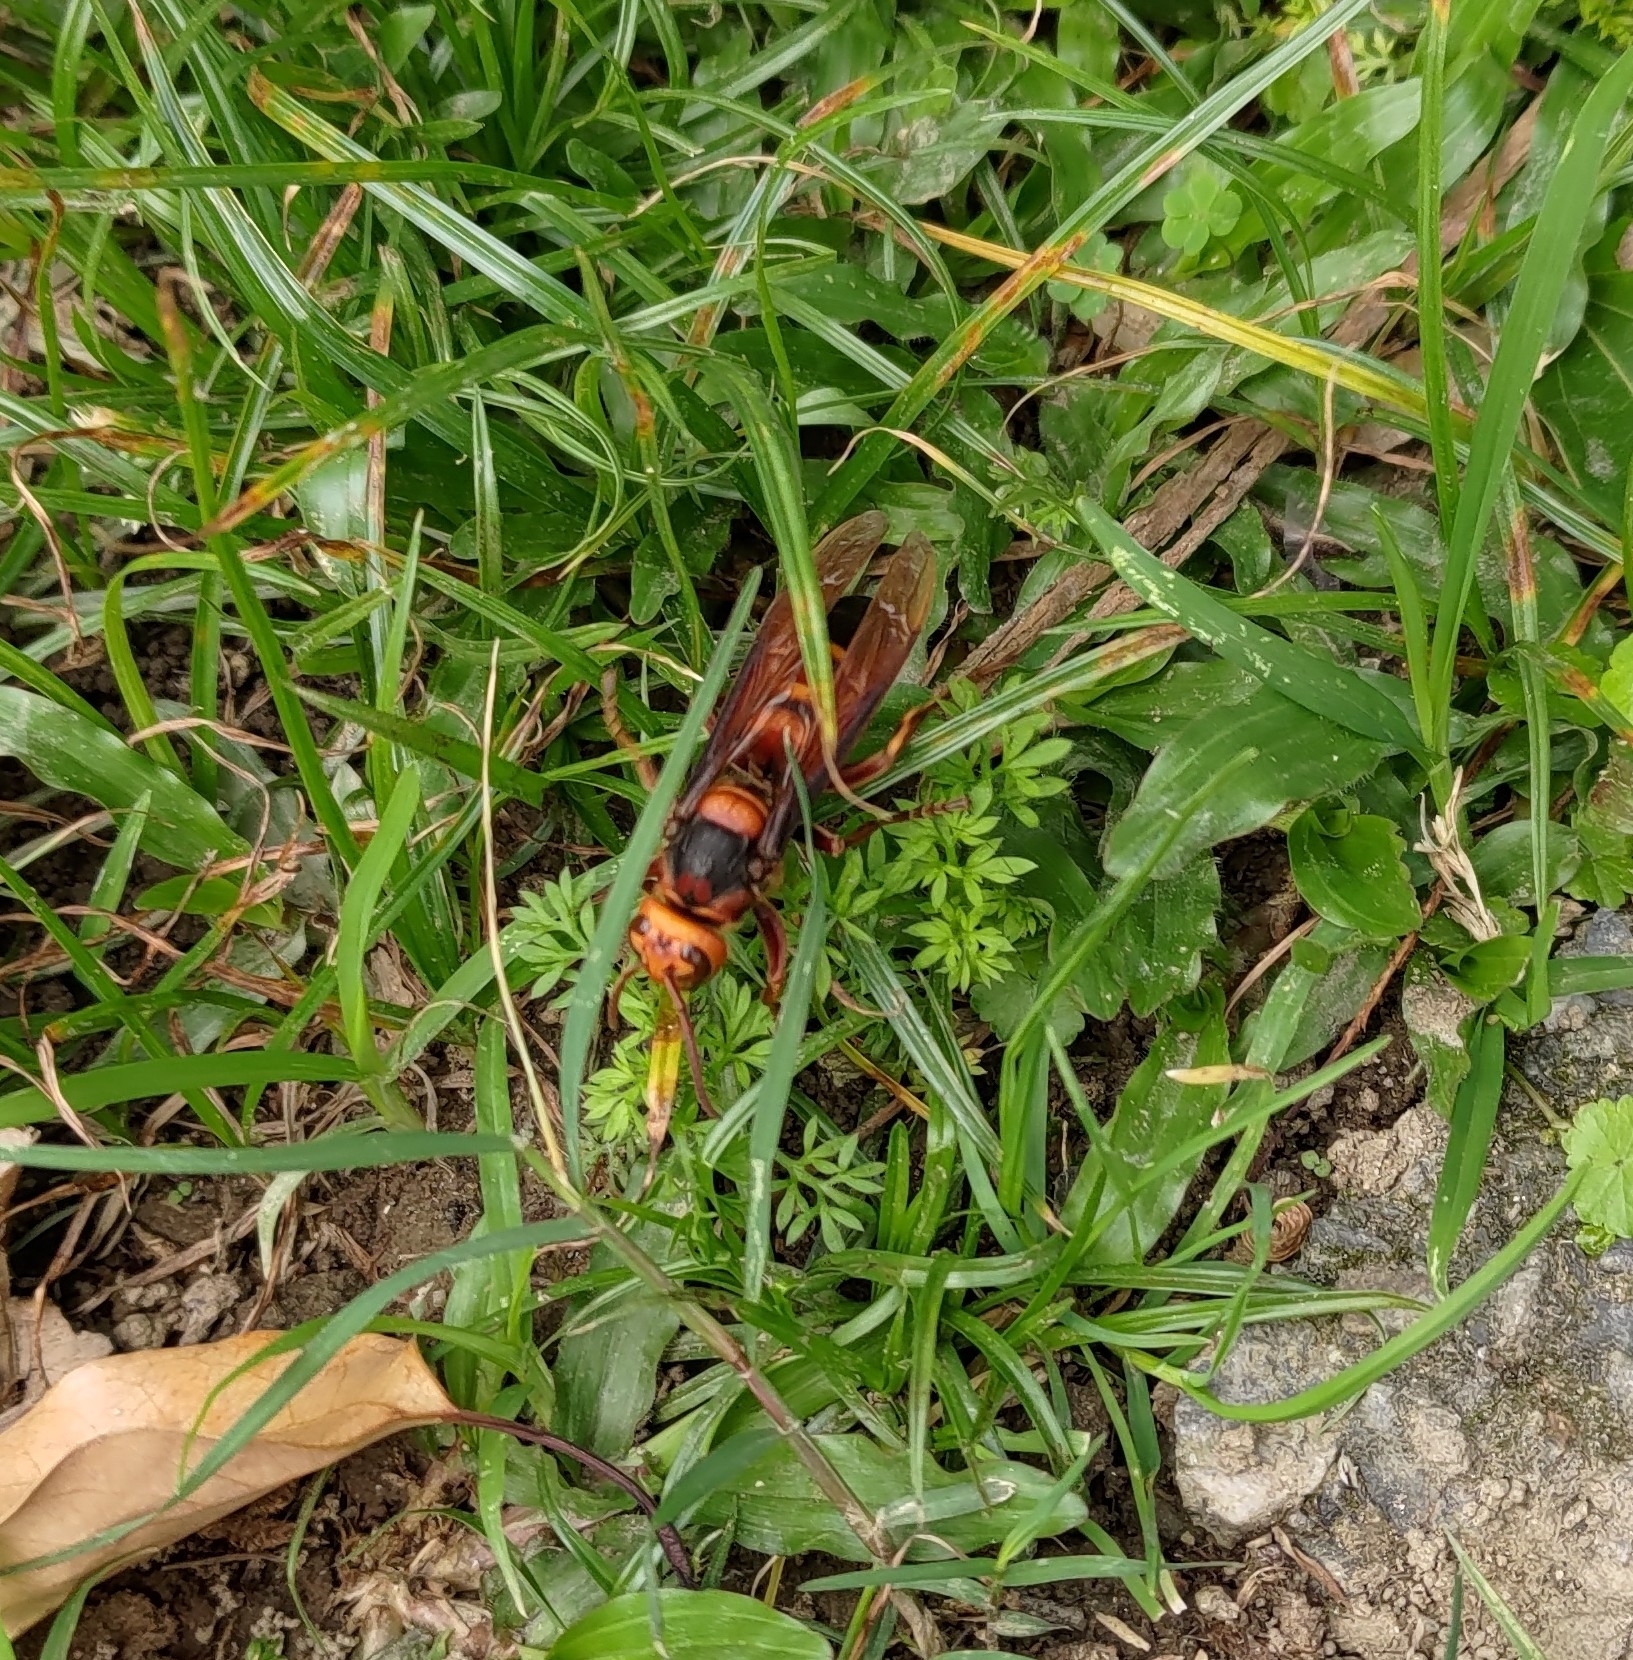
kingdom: Animalia
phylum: Arthropoda
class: Insecta
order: Hymenoptera
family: Vespidae
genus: Vespa
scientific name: Vespa ducalis
